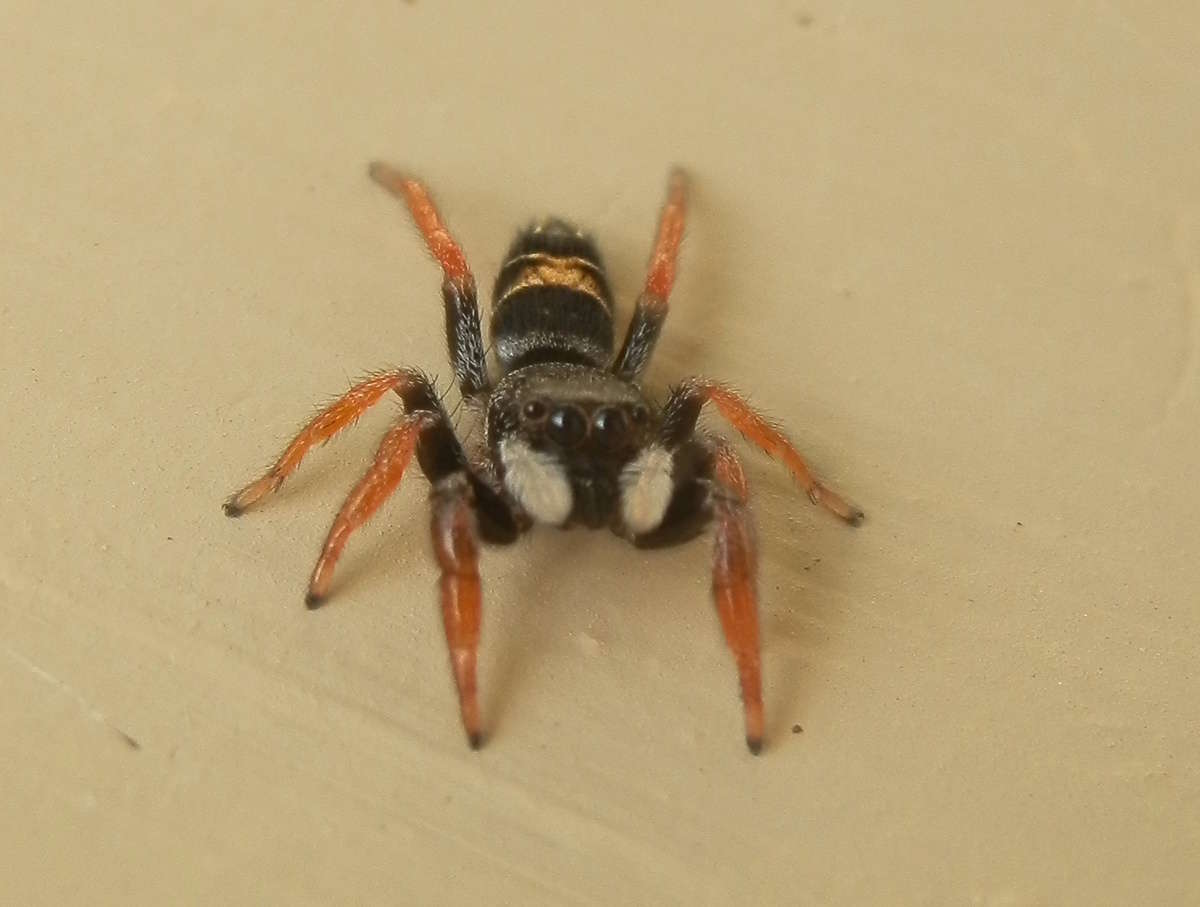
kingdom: Animalia
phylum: Arthropoda
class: Arachnida
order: Araneae
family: Salticidae
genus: Apricia
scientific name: Apricia jovialis
